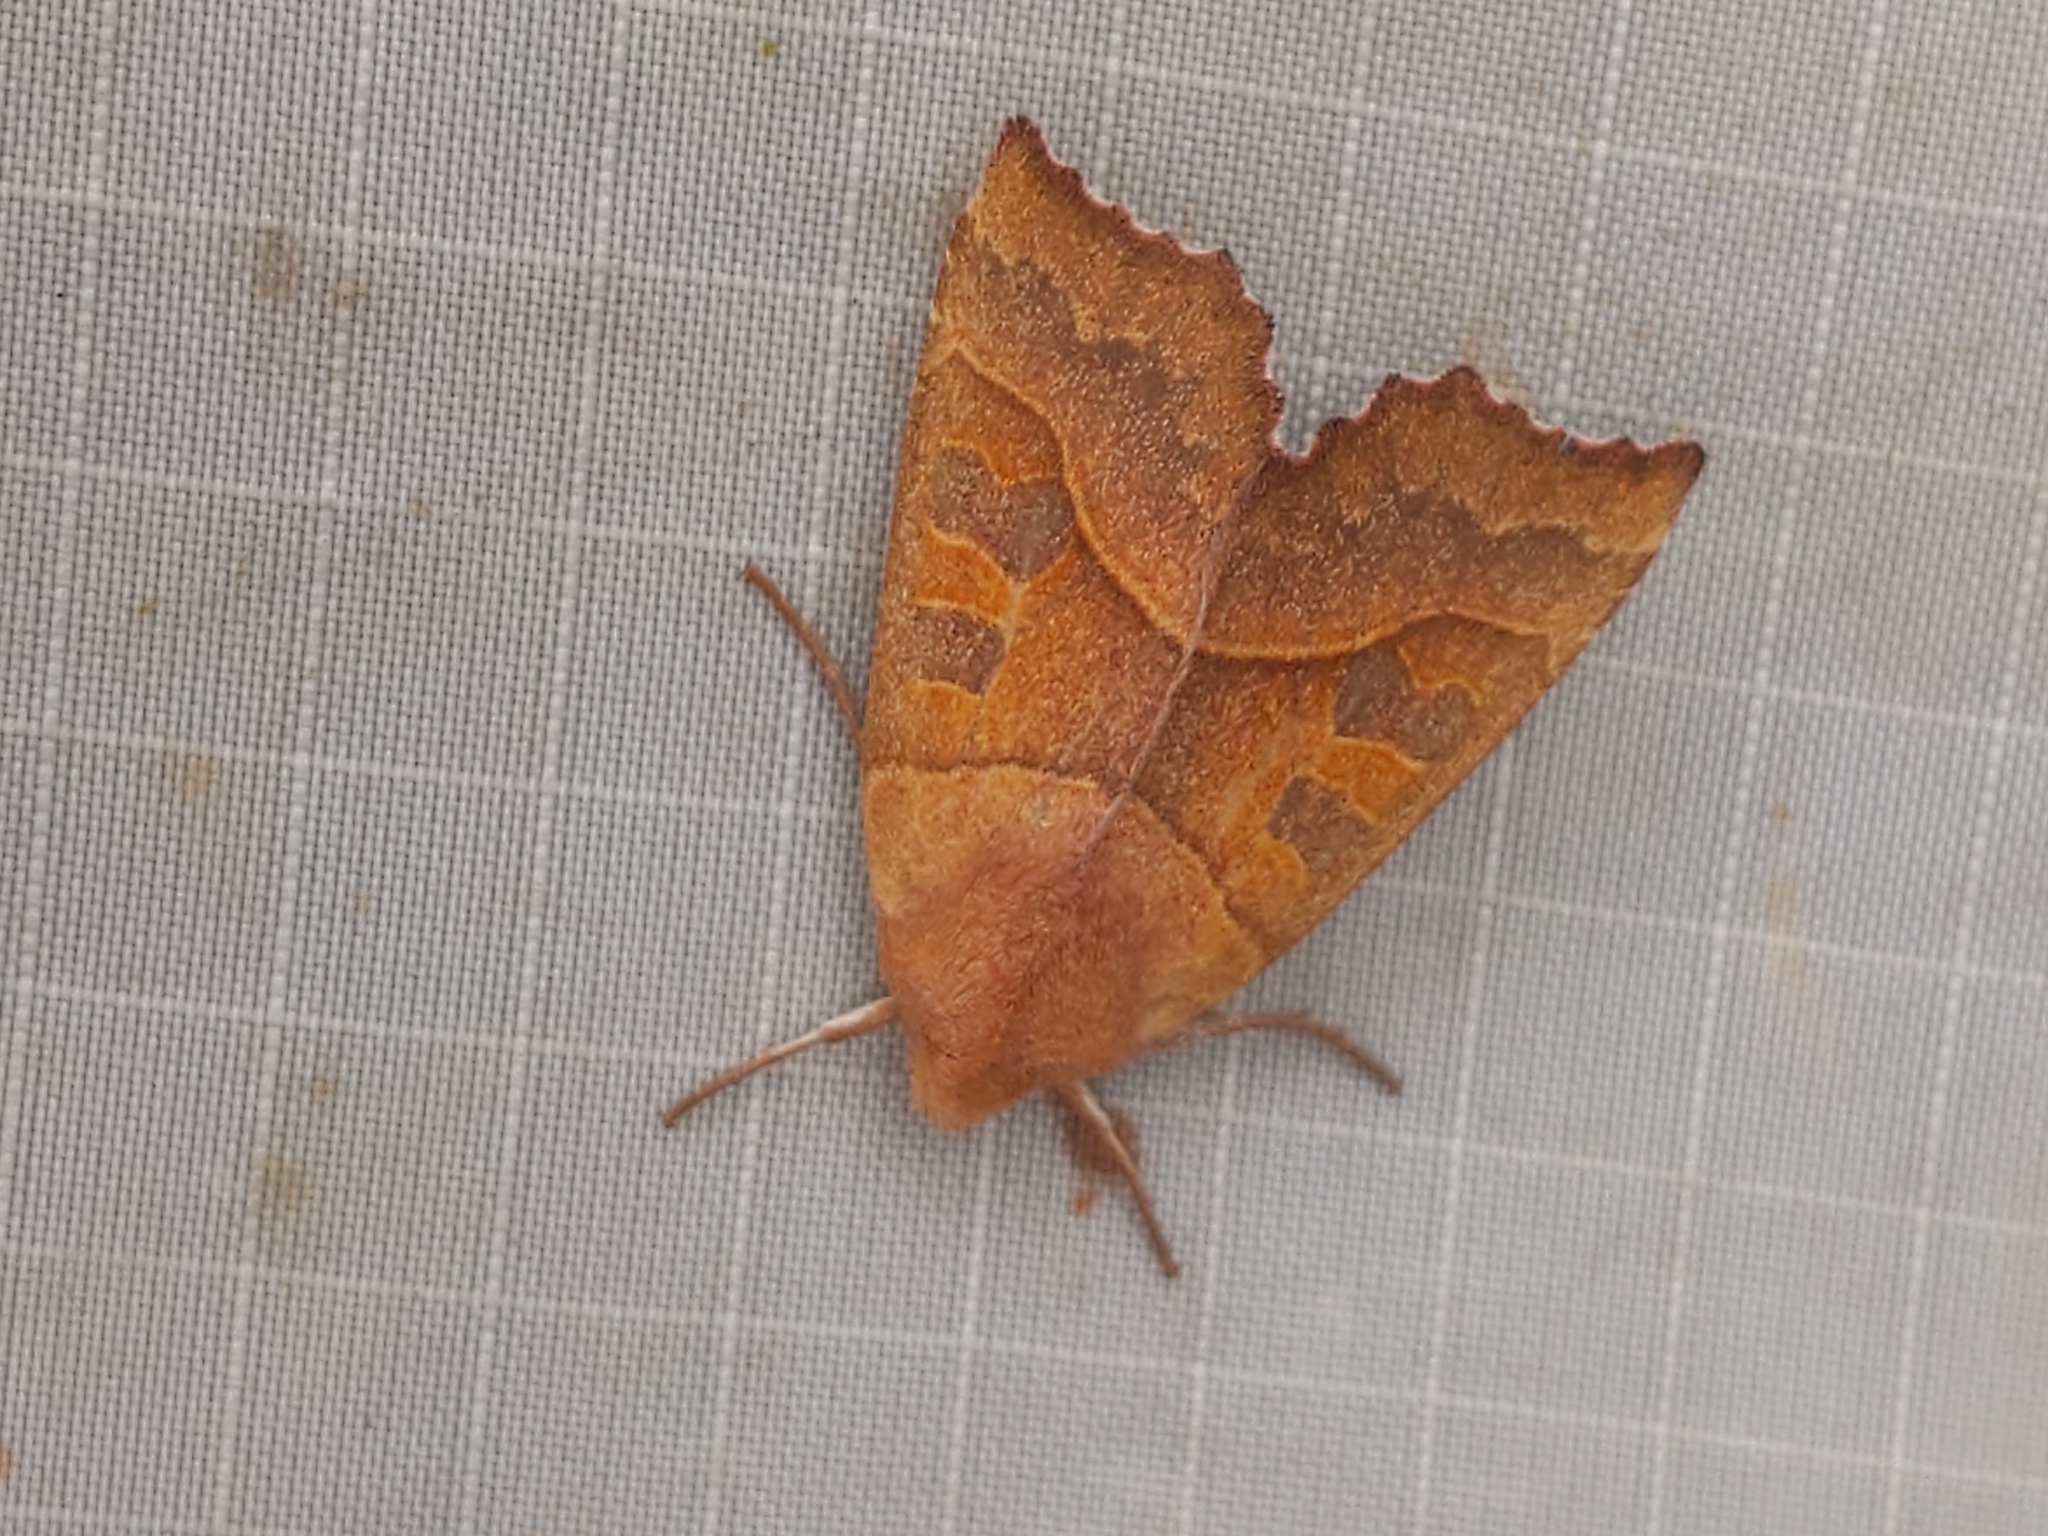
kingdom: Animalia
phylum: Arthropoda
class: Insecta
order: Lepidoptera
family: Noctuidae
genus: Eucirroedia
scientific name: Eucirroedia pampina
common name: Scalloped sallow
